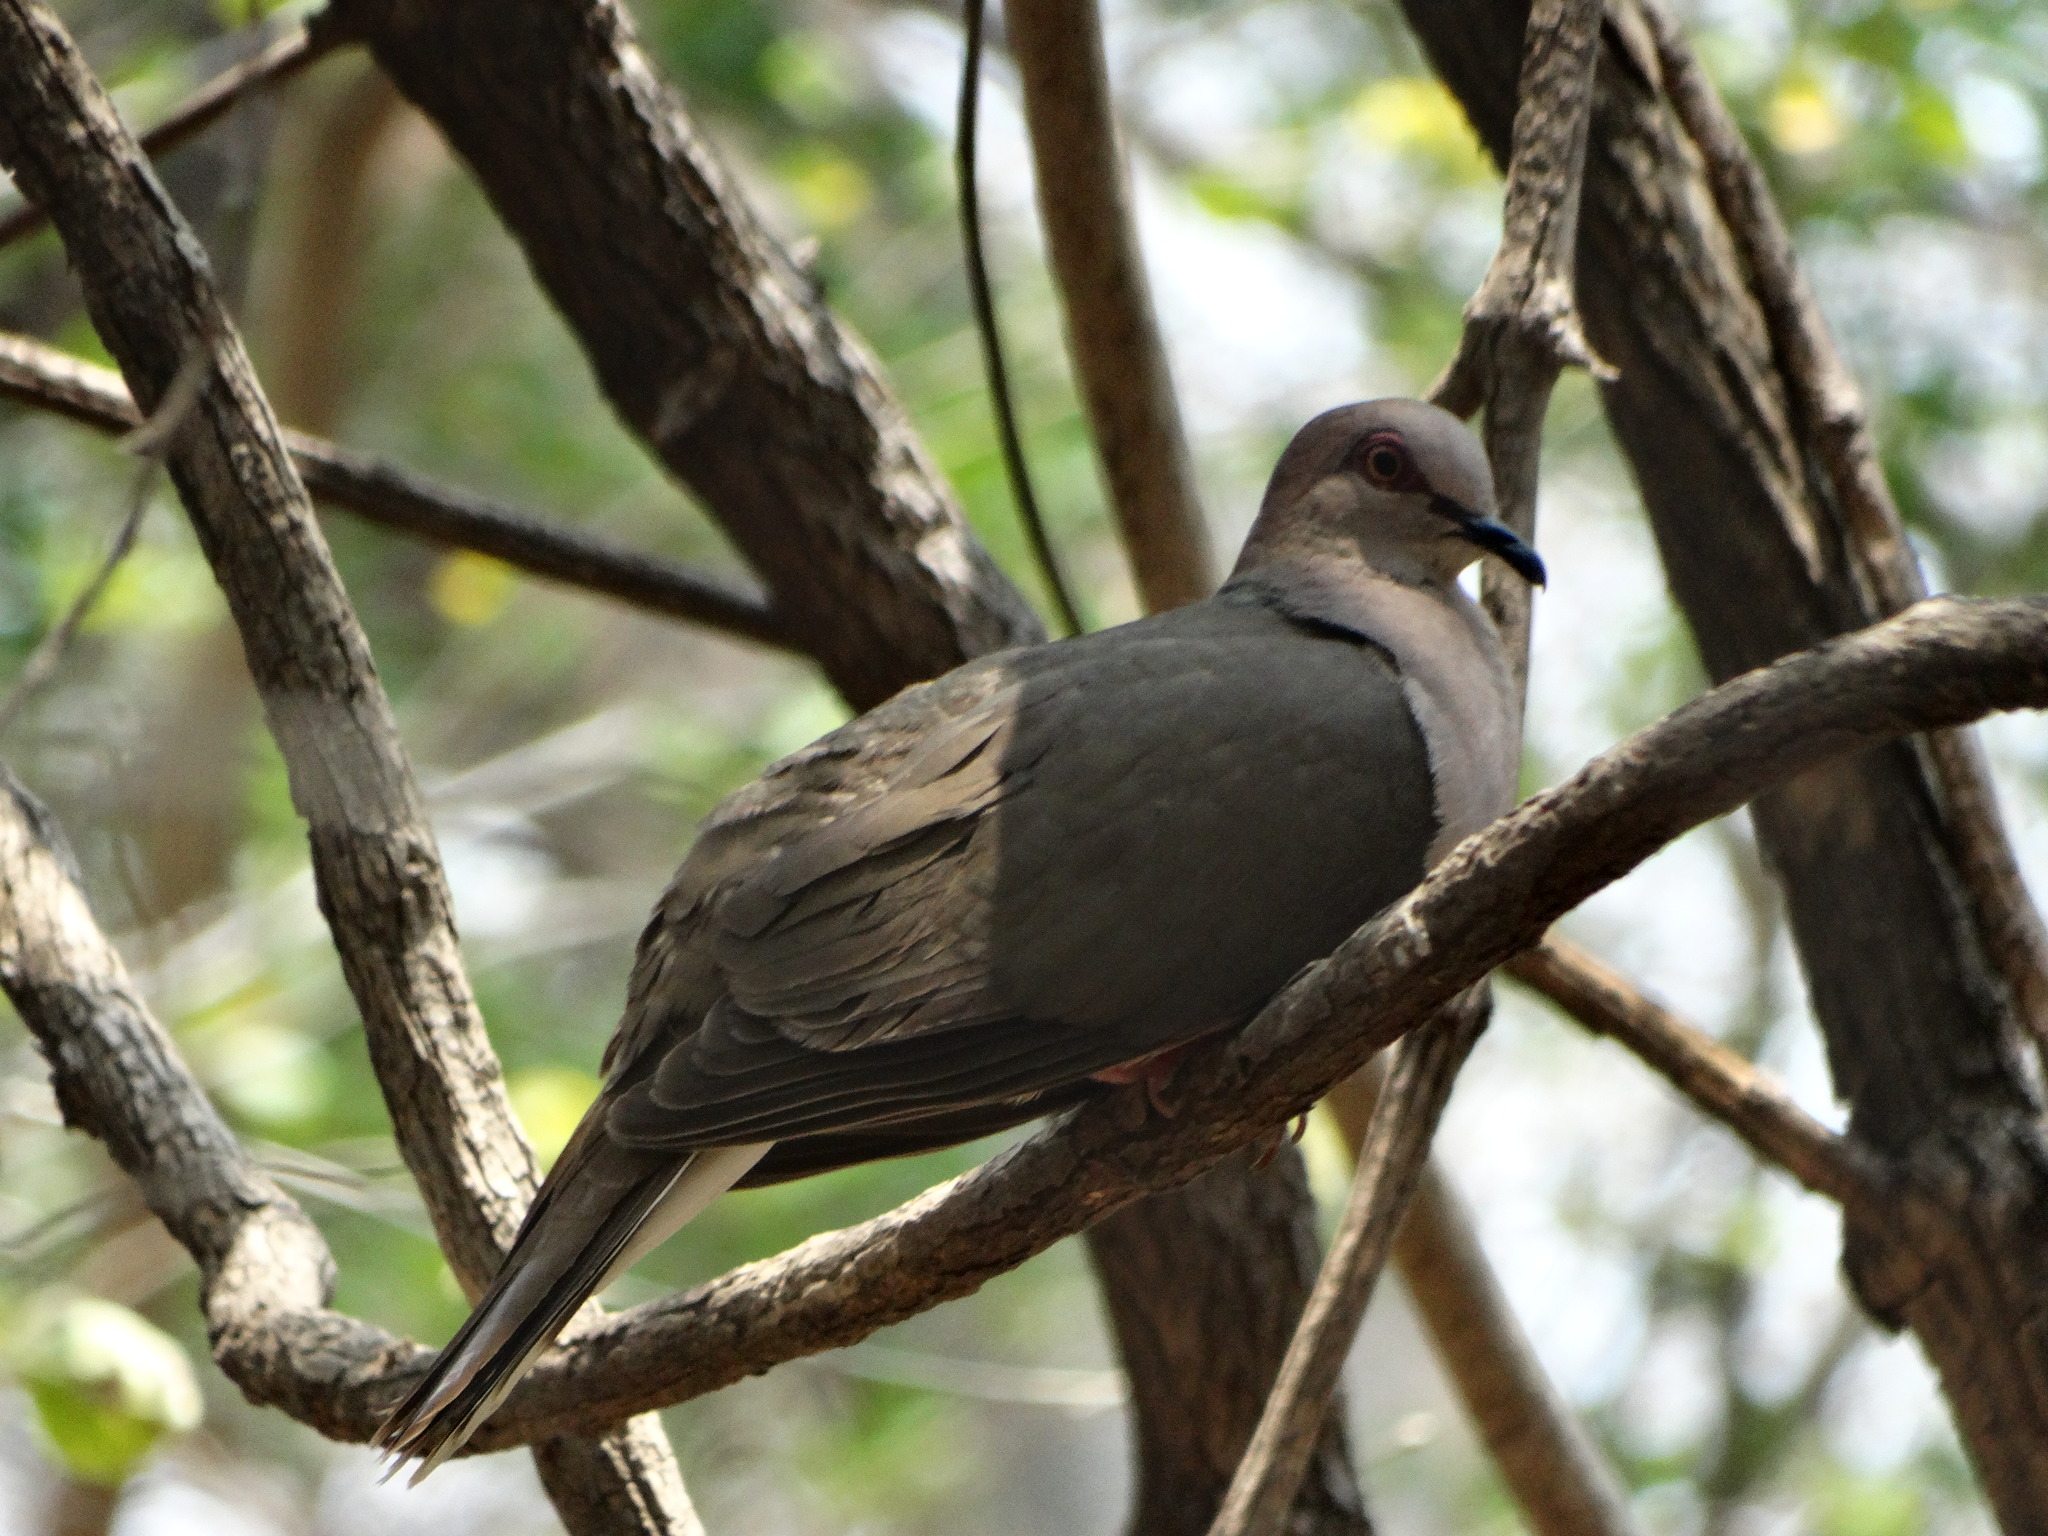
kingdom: Animalia
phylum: Chordata
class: Aves
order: Columbiformes
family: Columbidae
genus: Leptotila
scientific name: Leptotila verreauxi
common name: White-tipped dove
